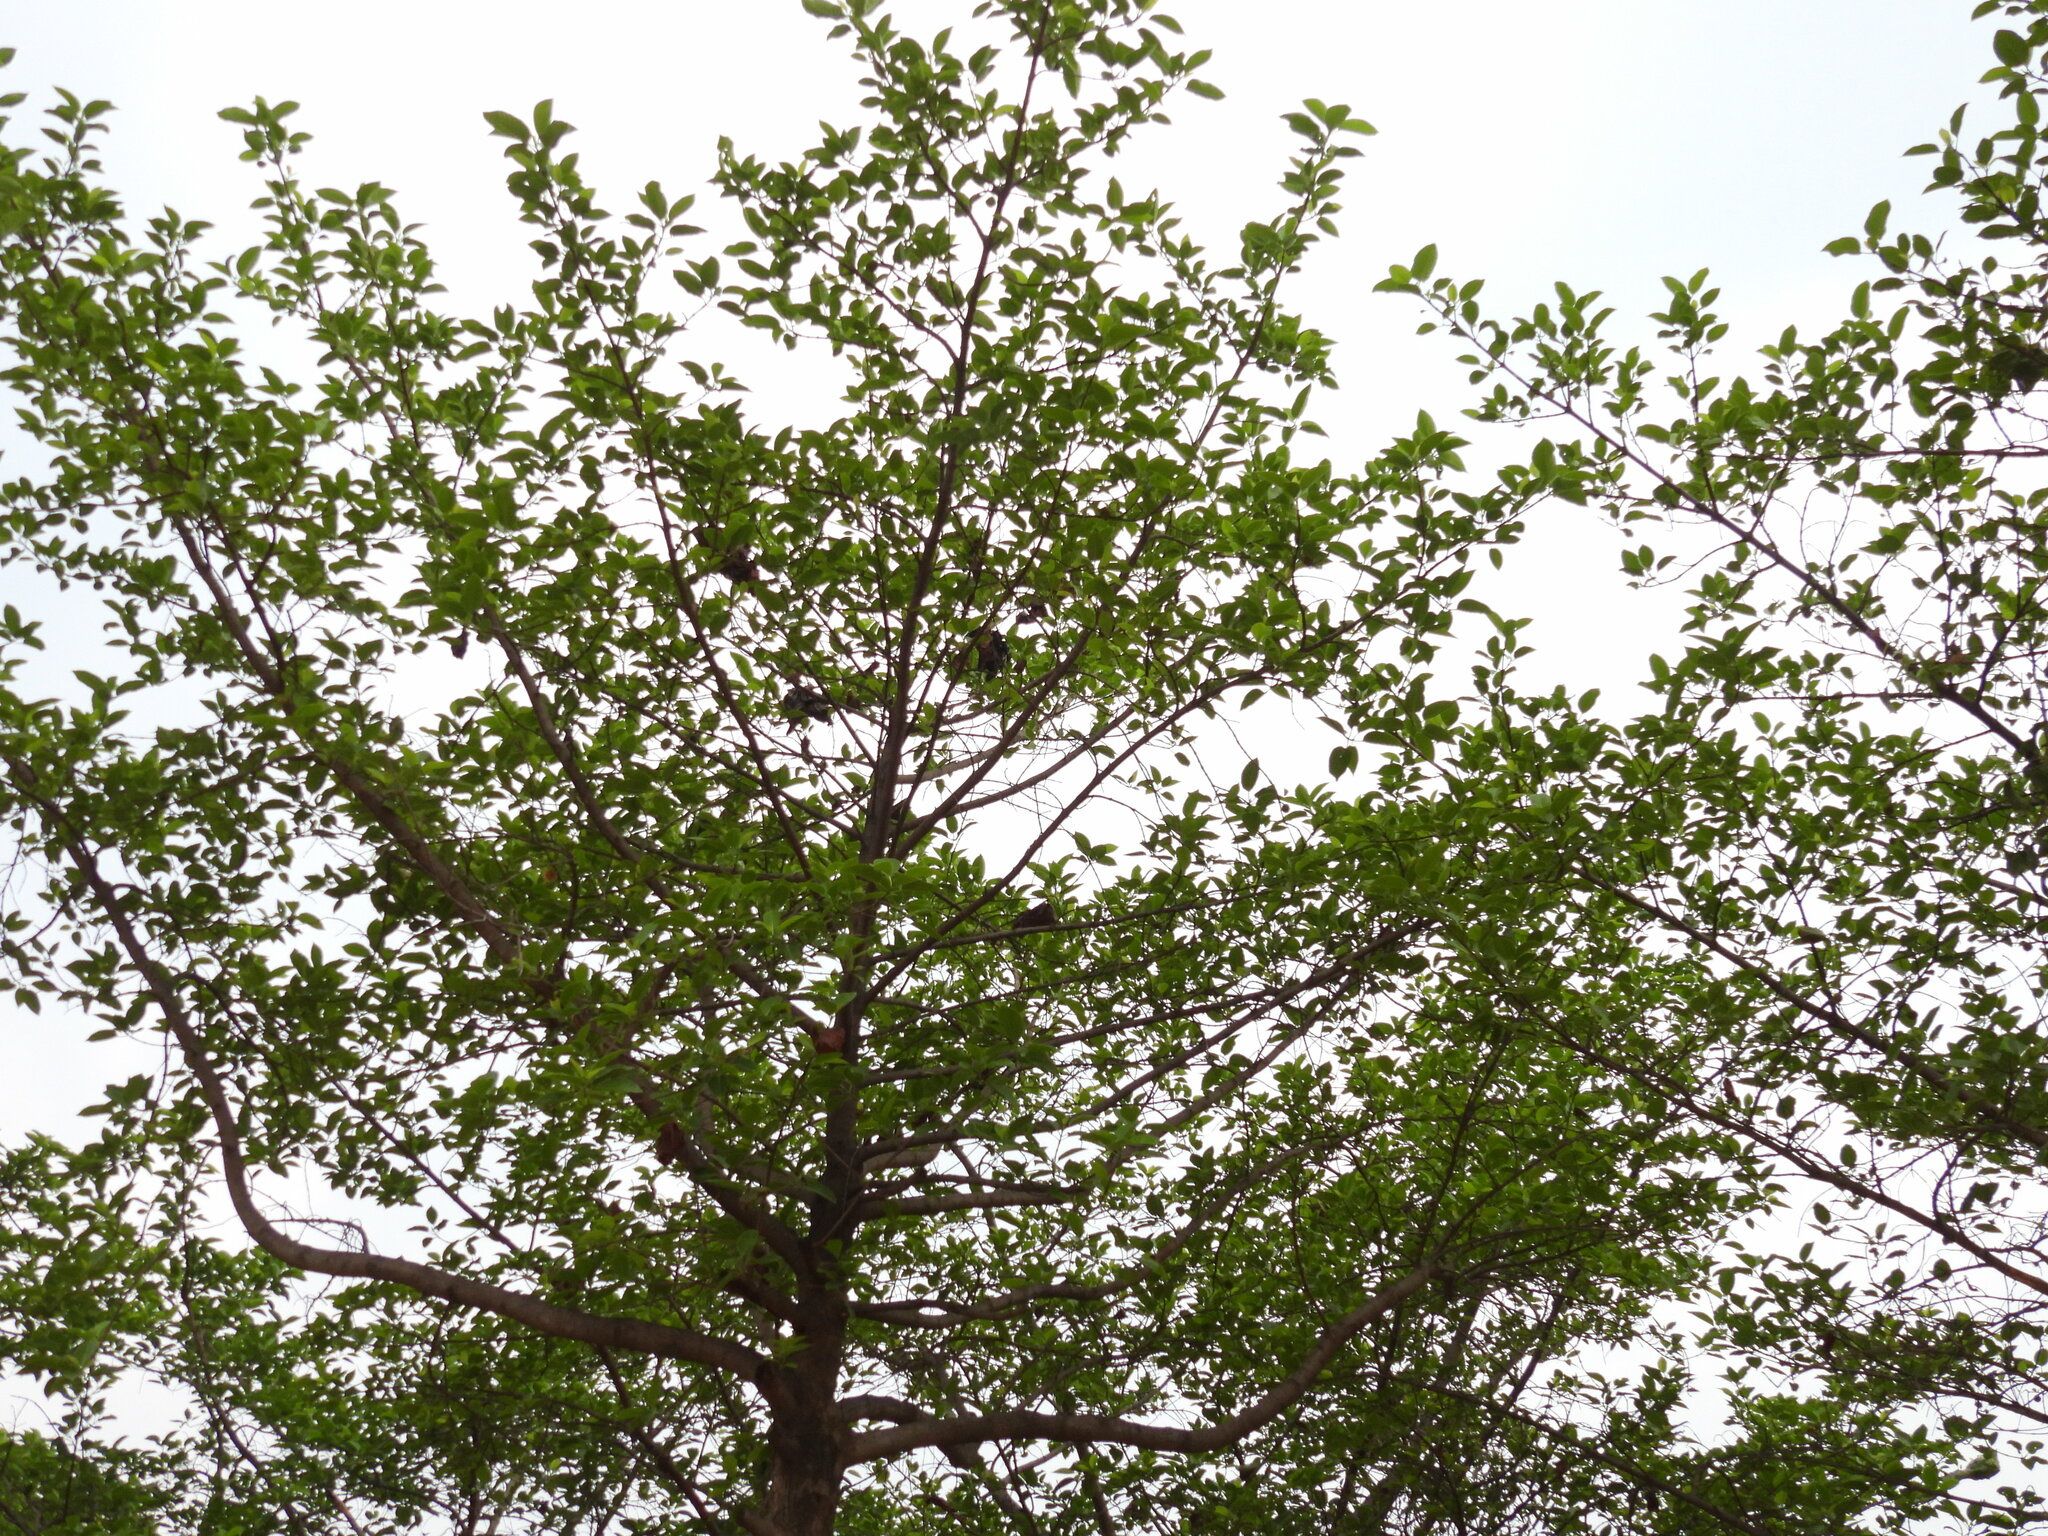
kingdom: Animalia
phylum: Arthropoda
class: Insecta
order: Hymenoptera
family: Formicidae
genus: Oecophylla
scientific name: Oecophylla smaragdina
